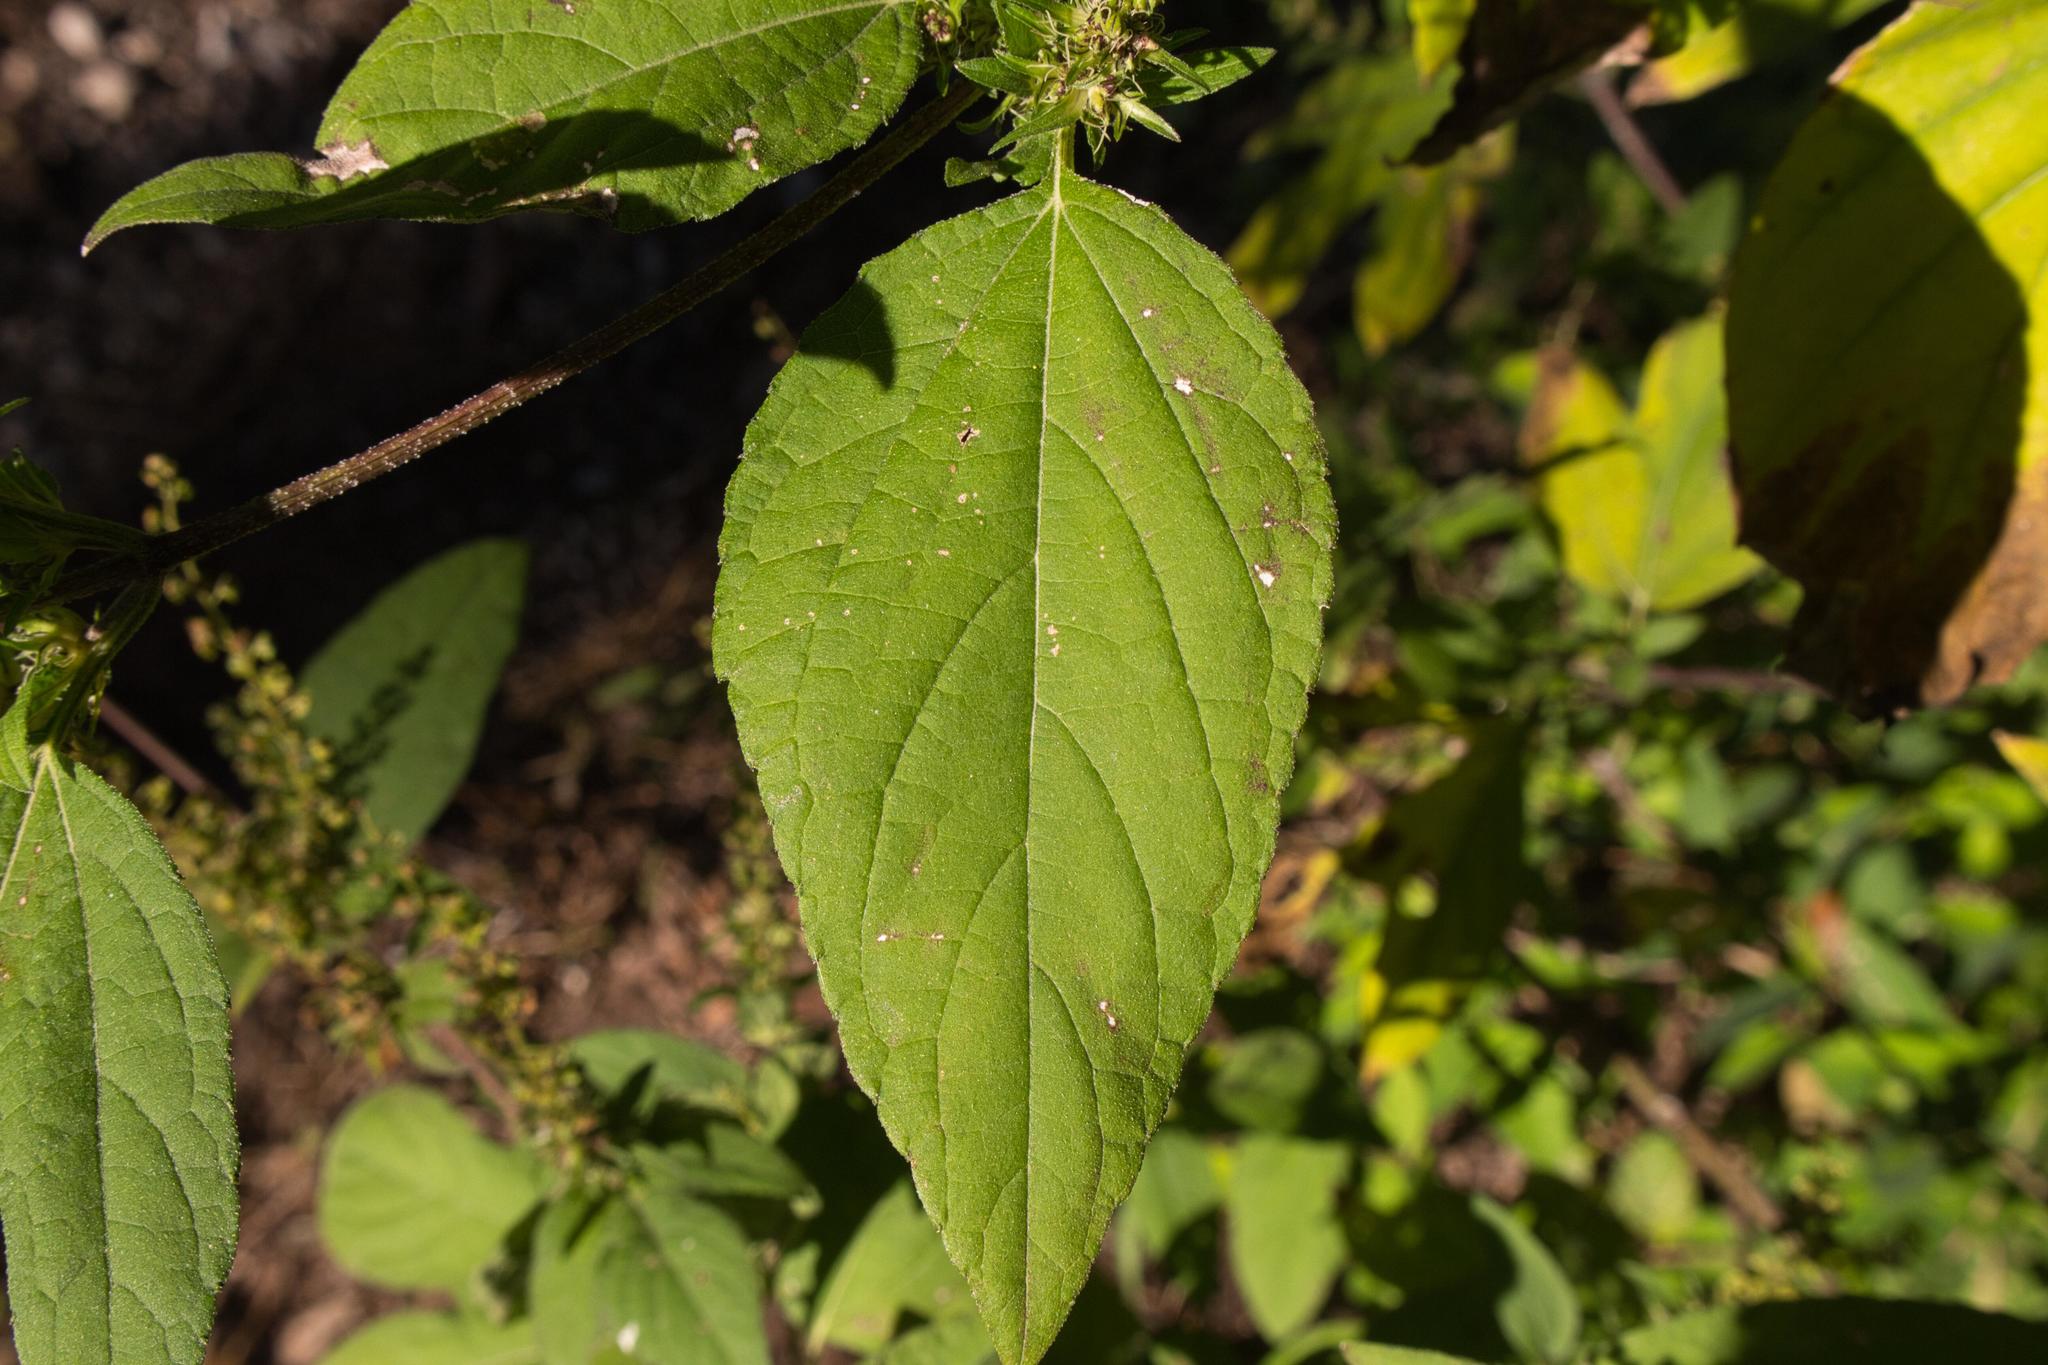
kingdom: Plantae
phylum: Tracheophyta
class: Magnoliopsida
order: Asterales
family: Asteraceae
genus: Ambrosia
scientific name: Ambrosia trifida
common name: Giant ragweed
